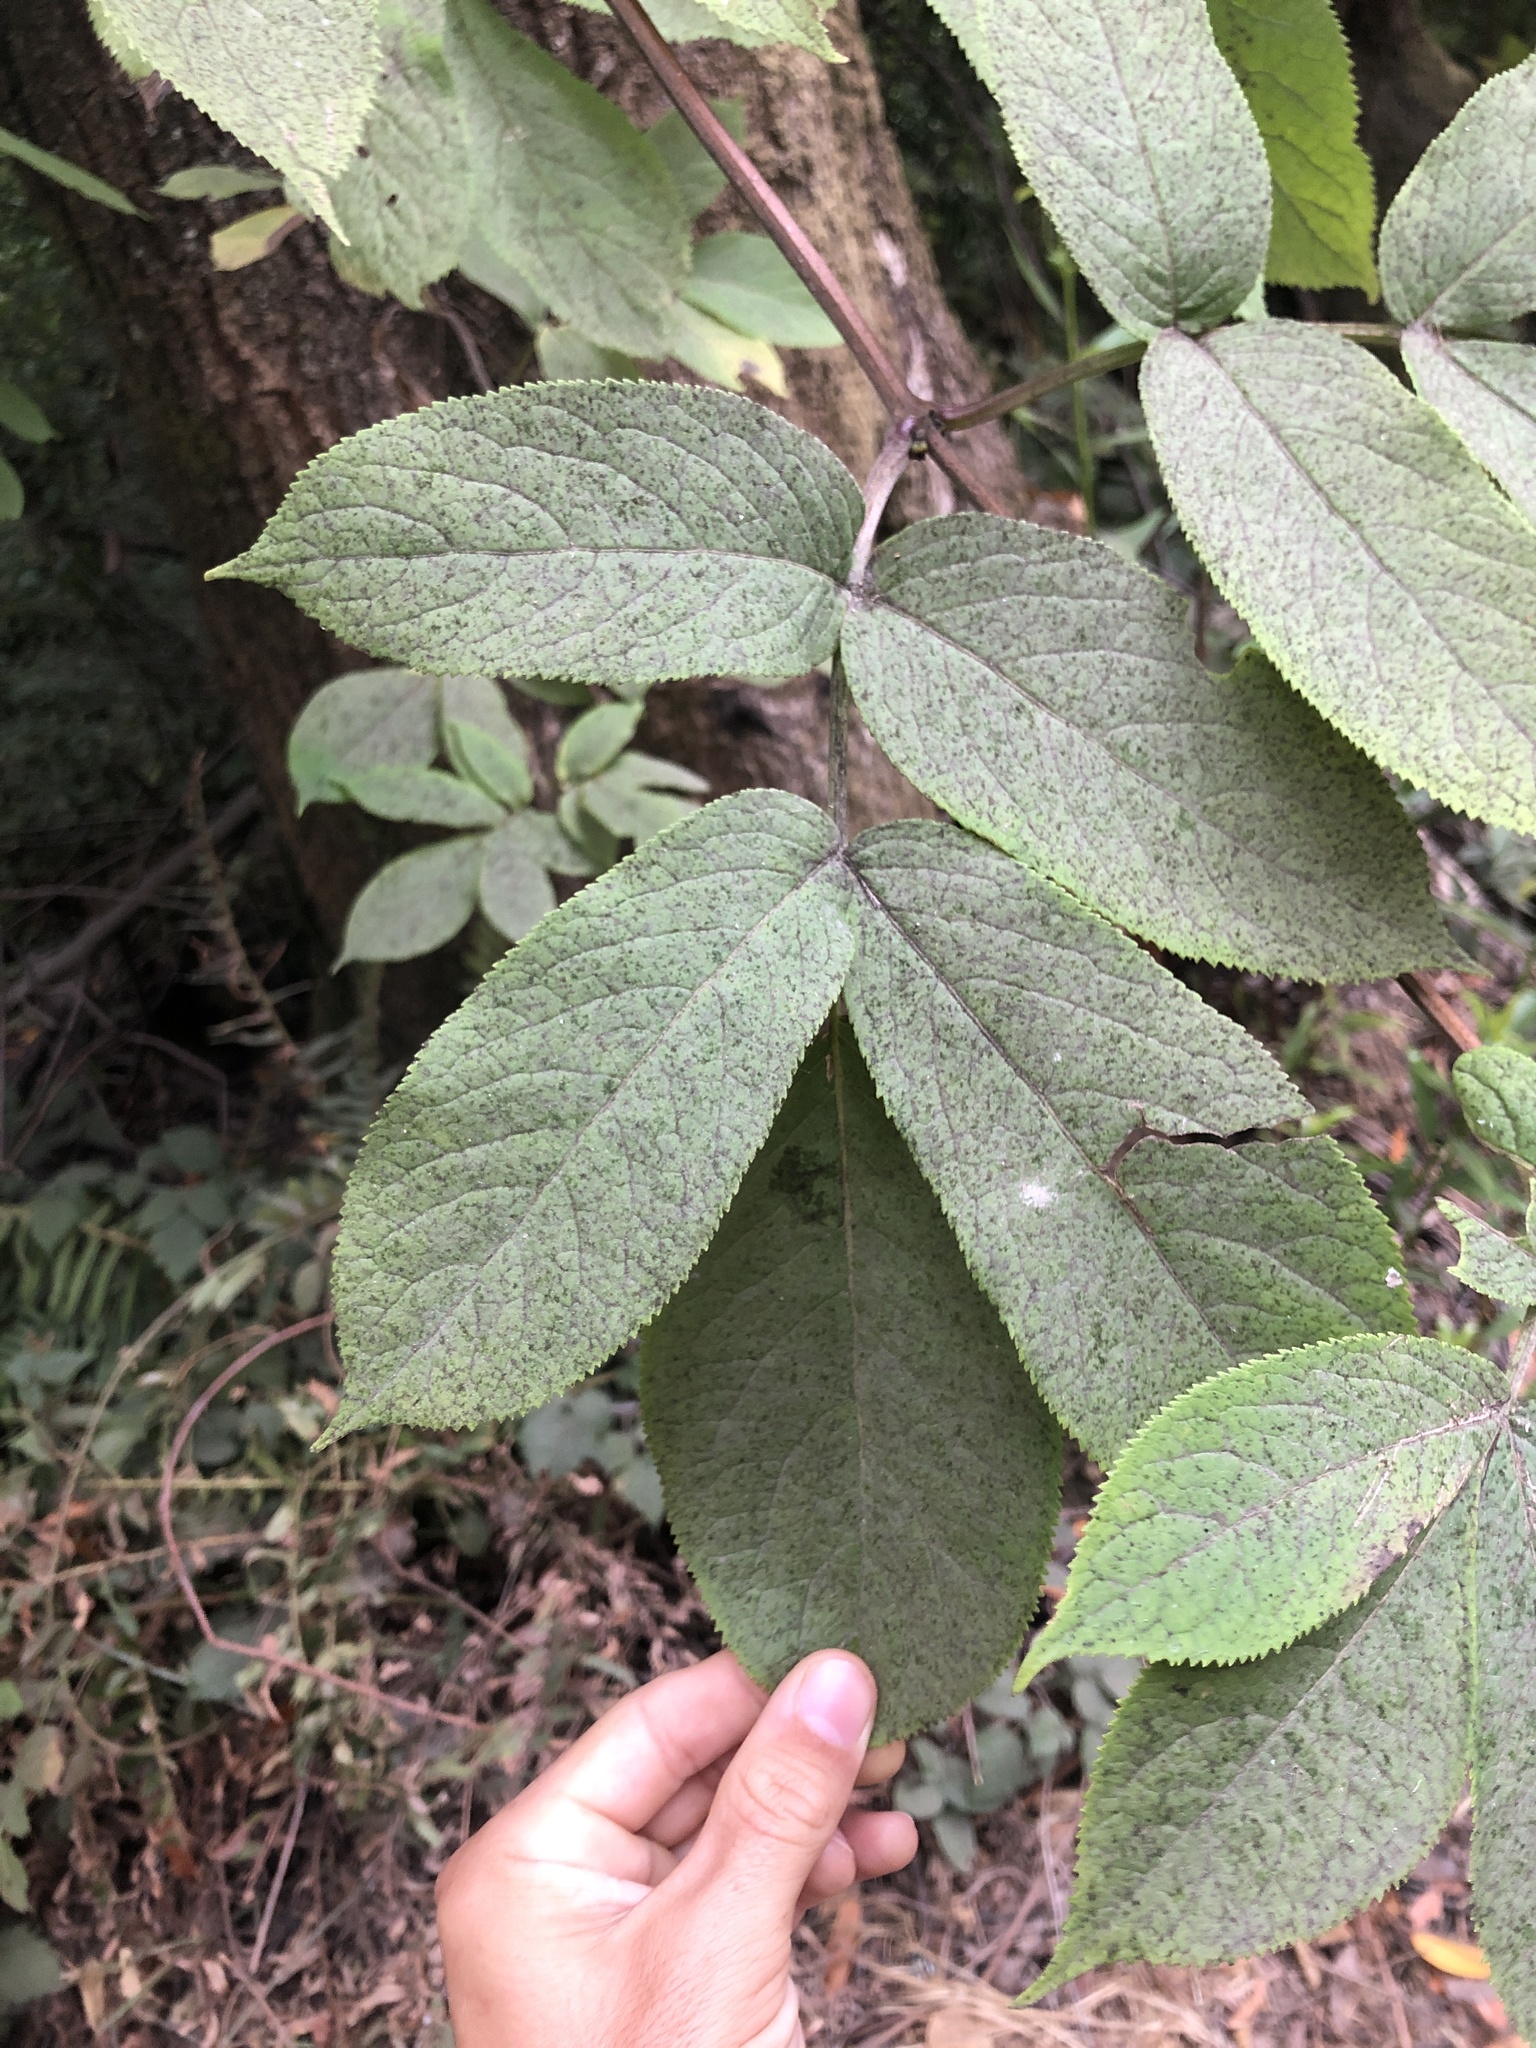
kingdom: Plantae
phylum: Tracheophyta
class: Magnoliopsida
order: Dipsacales
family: Viburnaceae
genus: Sambucus
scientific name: Sambucus racemosa
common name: Red-berried elder
